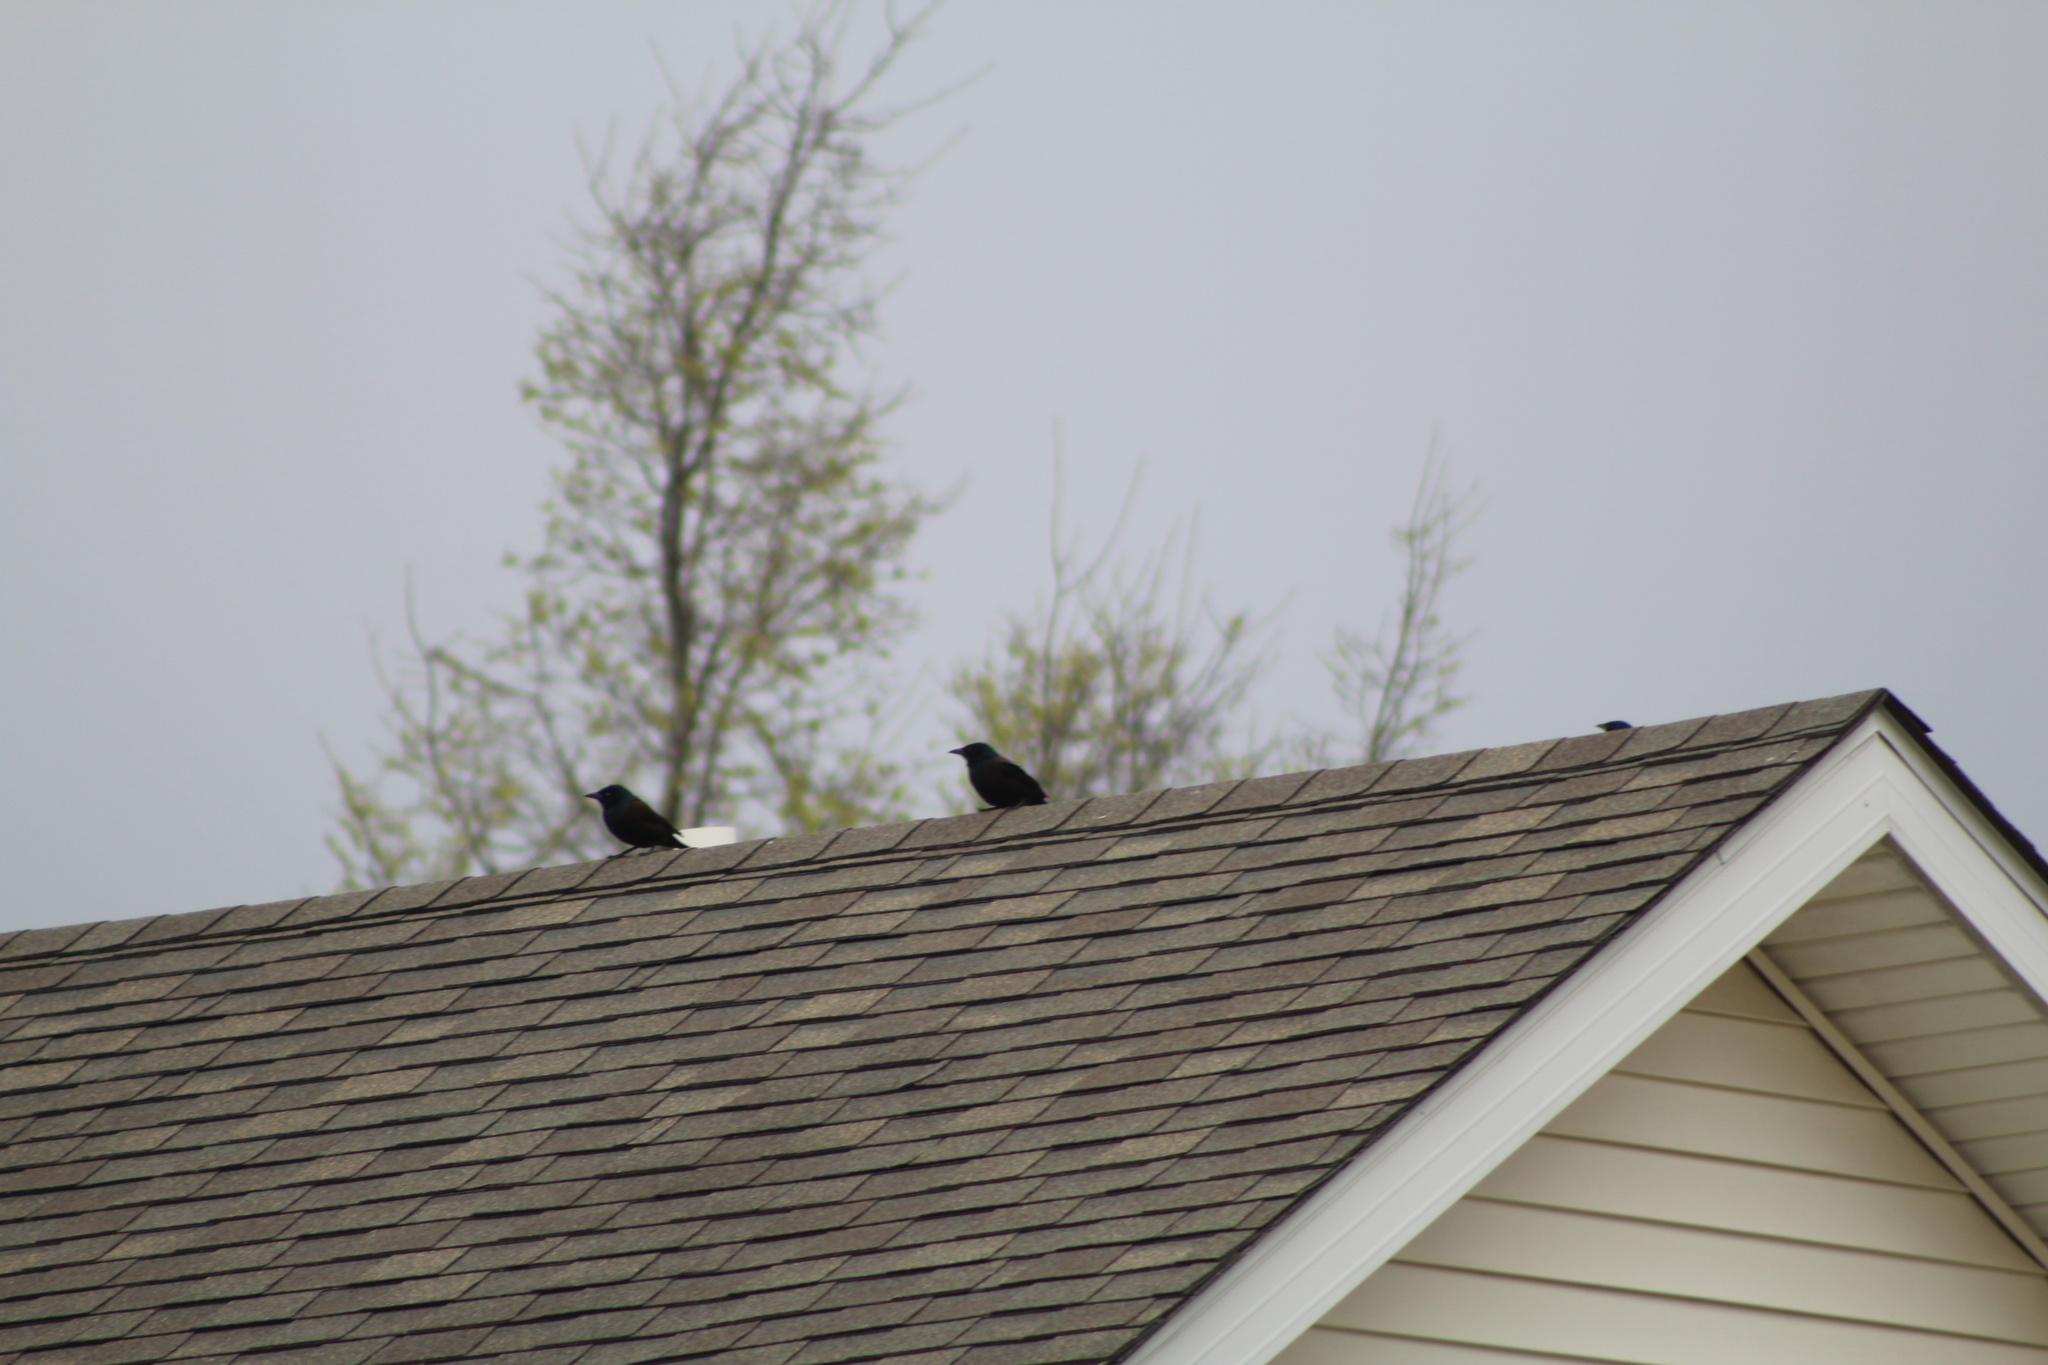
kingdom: Animalia
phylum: Chordata
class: Aves
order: Passeriformes
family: Icteridae
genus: Quiscalus
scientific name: Quiscalus quiscula
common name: Common grackle
